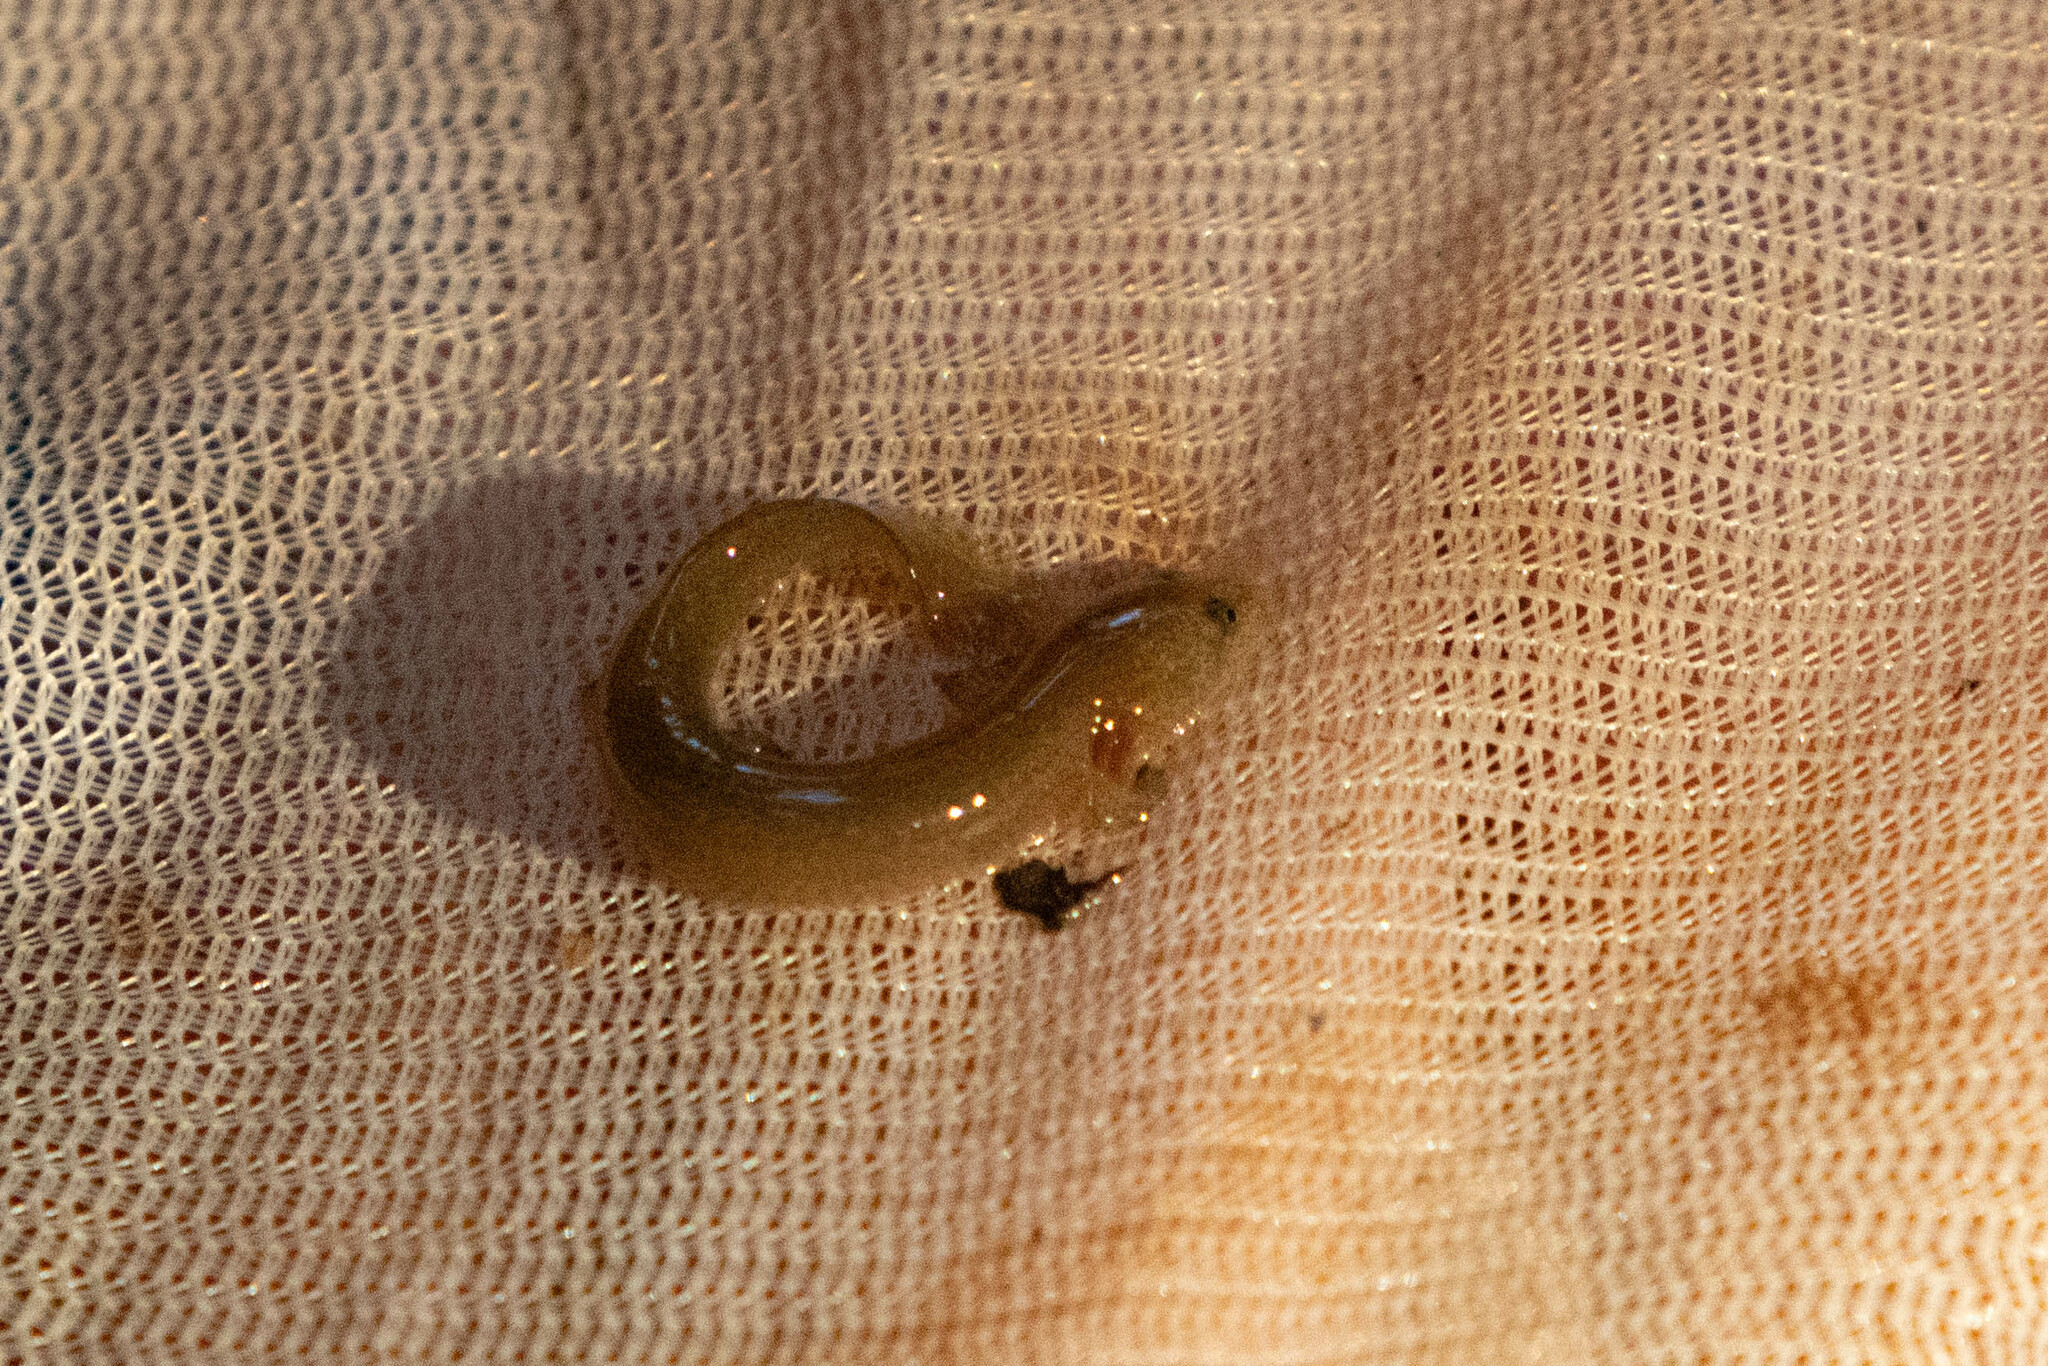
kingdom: Animalia
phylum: Chordata
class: Amphibia
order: Caudata
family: Plethodontidae
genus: Pseudotriton
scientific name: Pseudotriton ruber
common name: Red salamander
